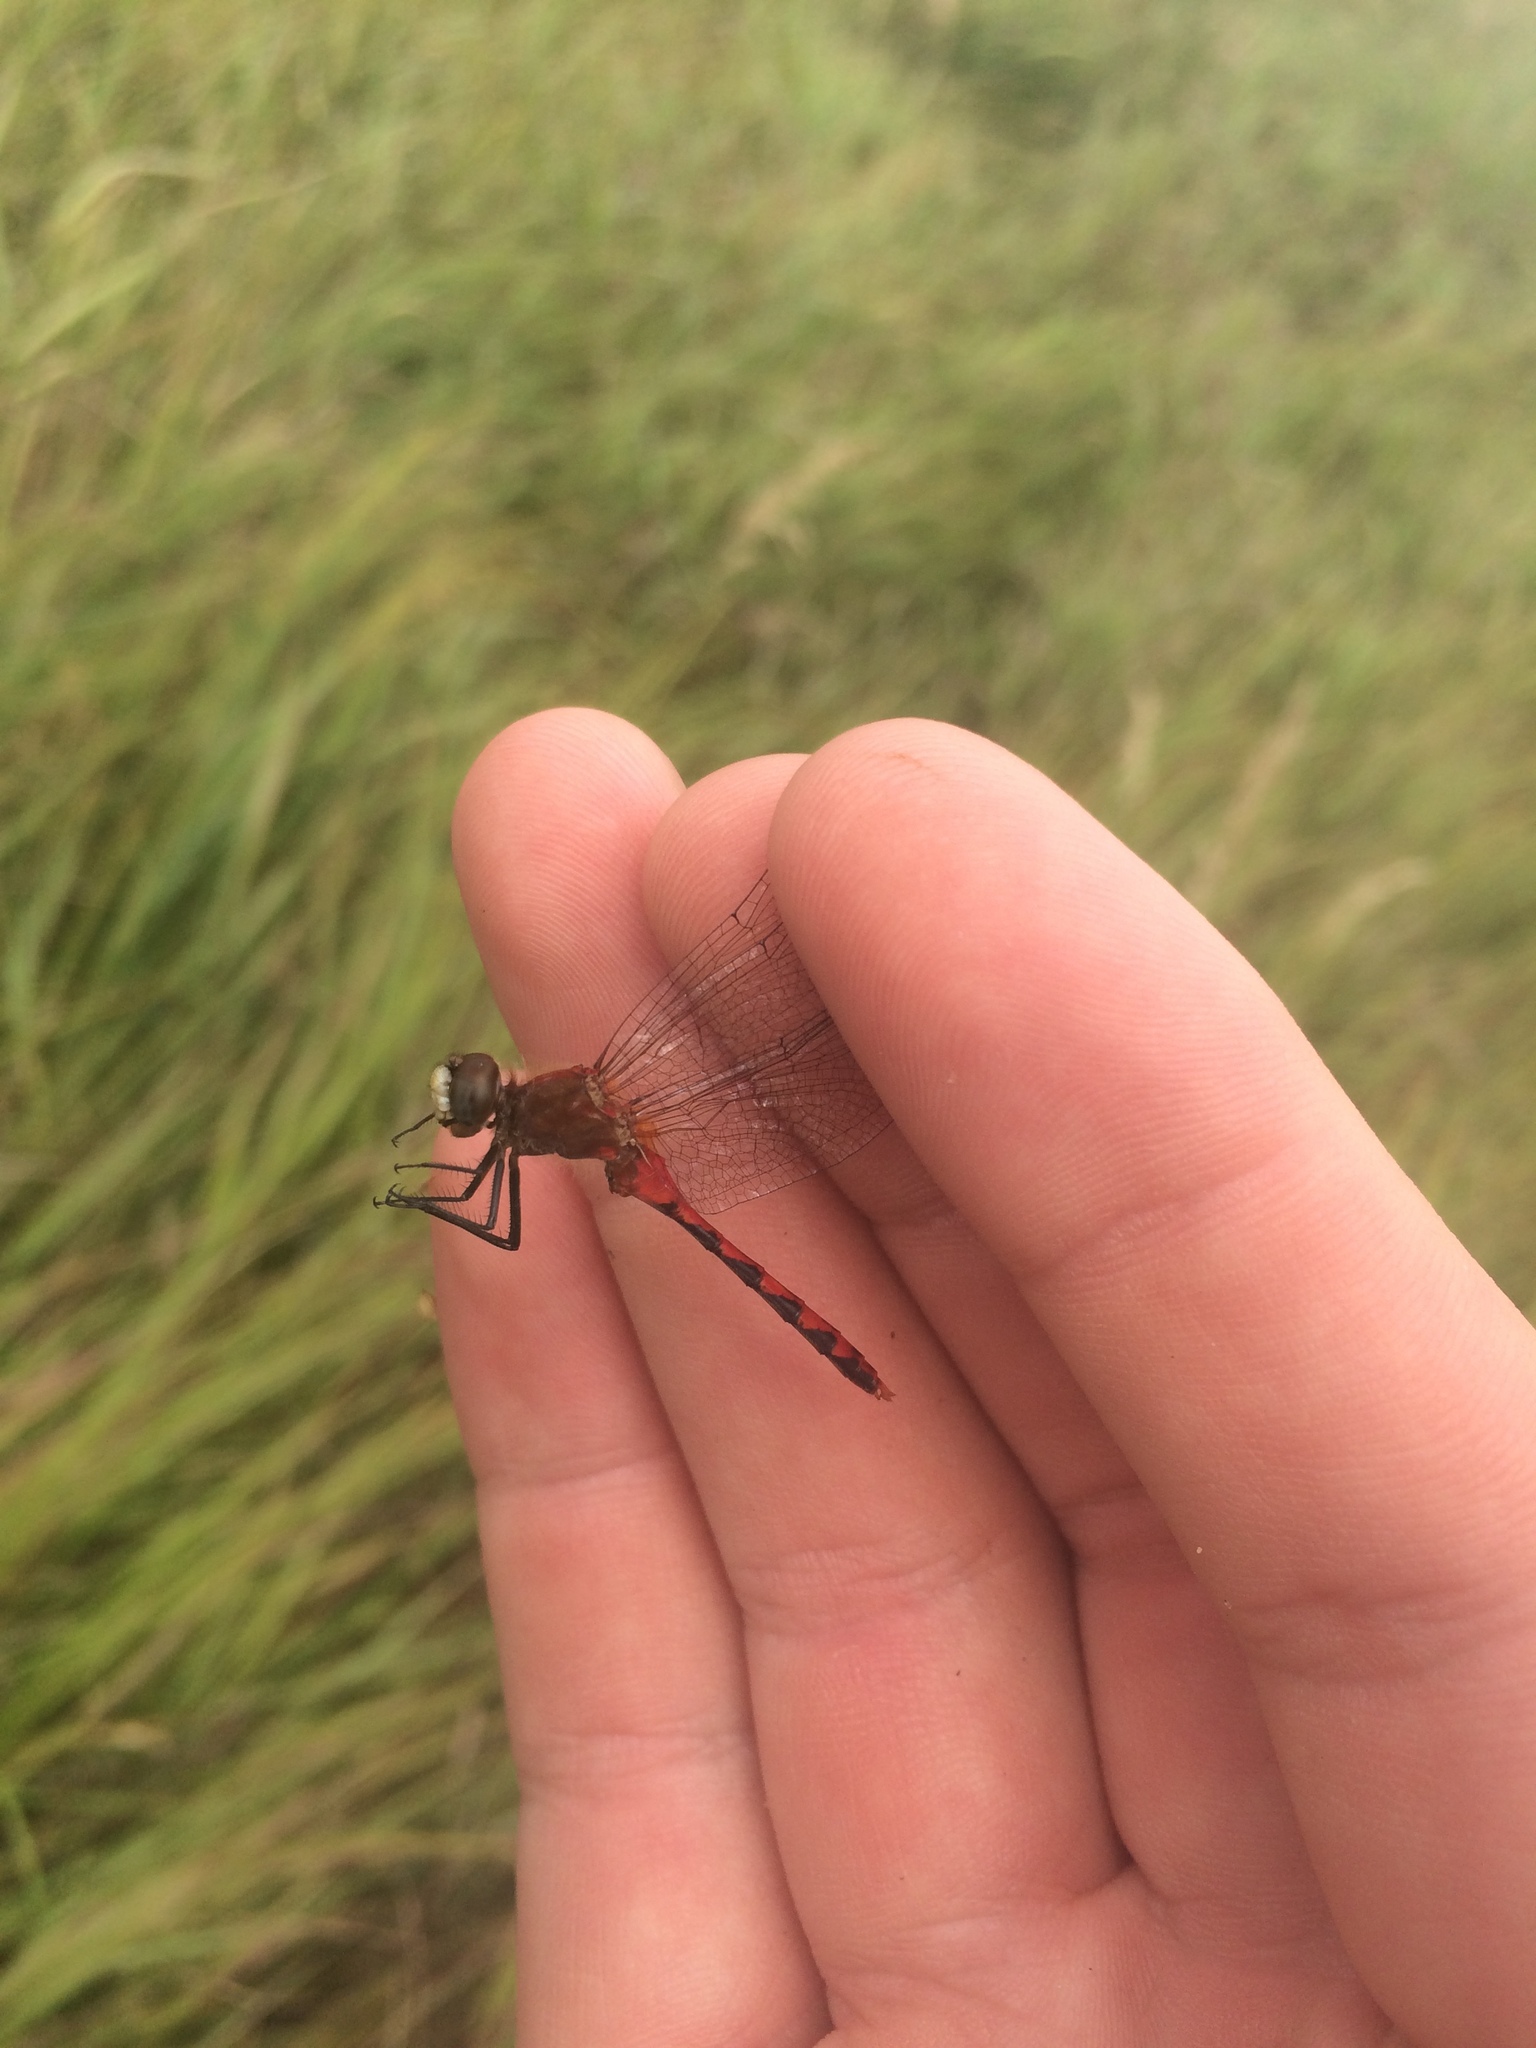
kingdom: Animalia
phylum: Arthropoda
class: Insecta
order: Odonata
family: Libellulidae
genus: Sympetrum
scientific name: Sympetrum obtrusum
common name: White-faced meadowhawk
